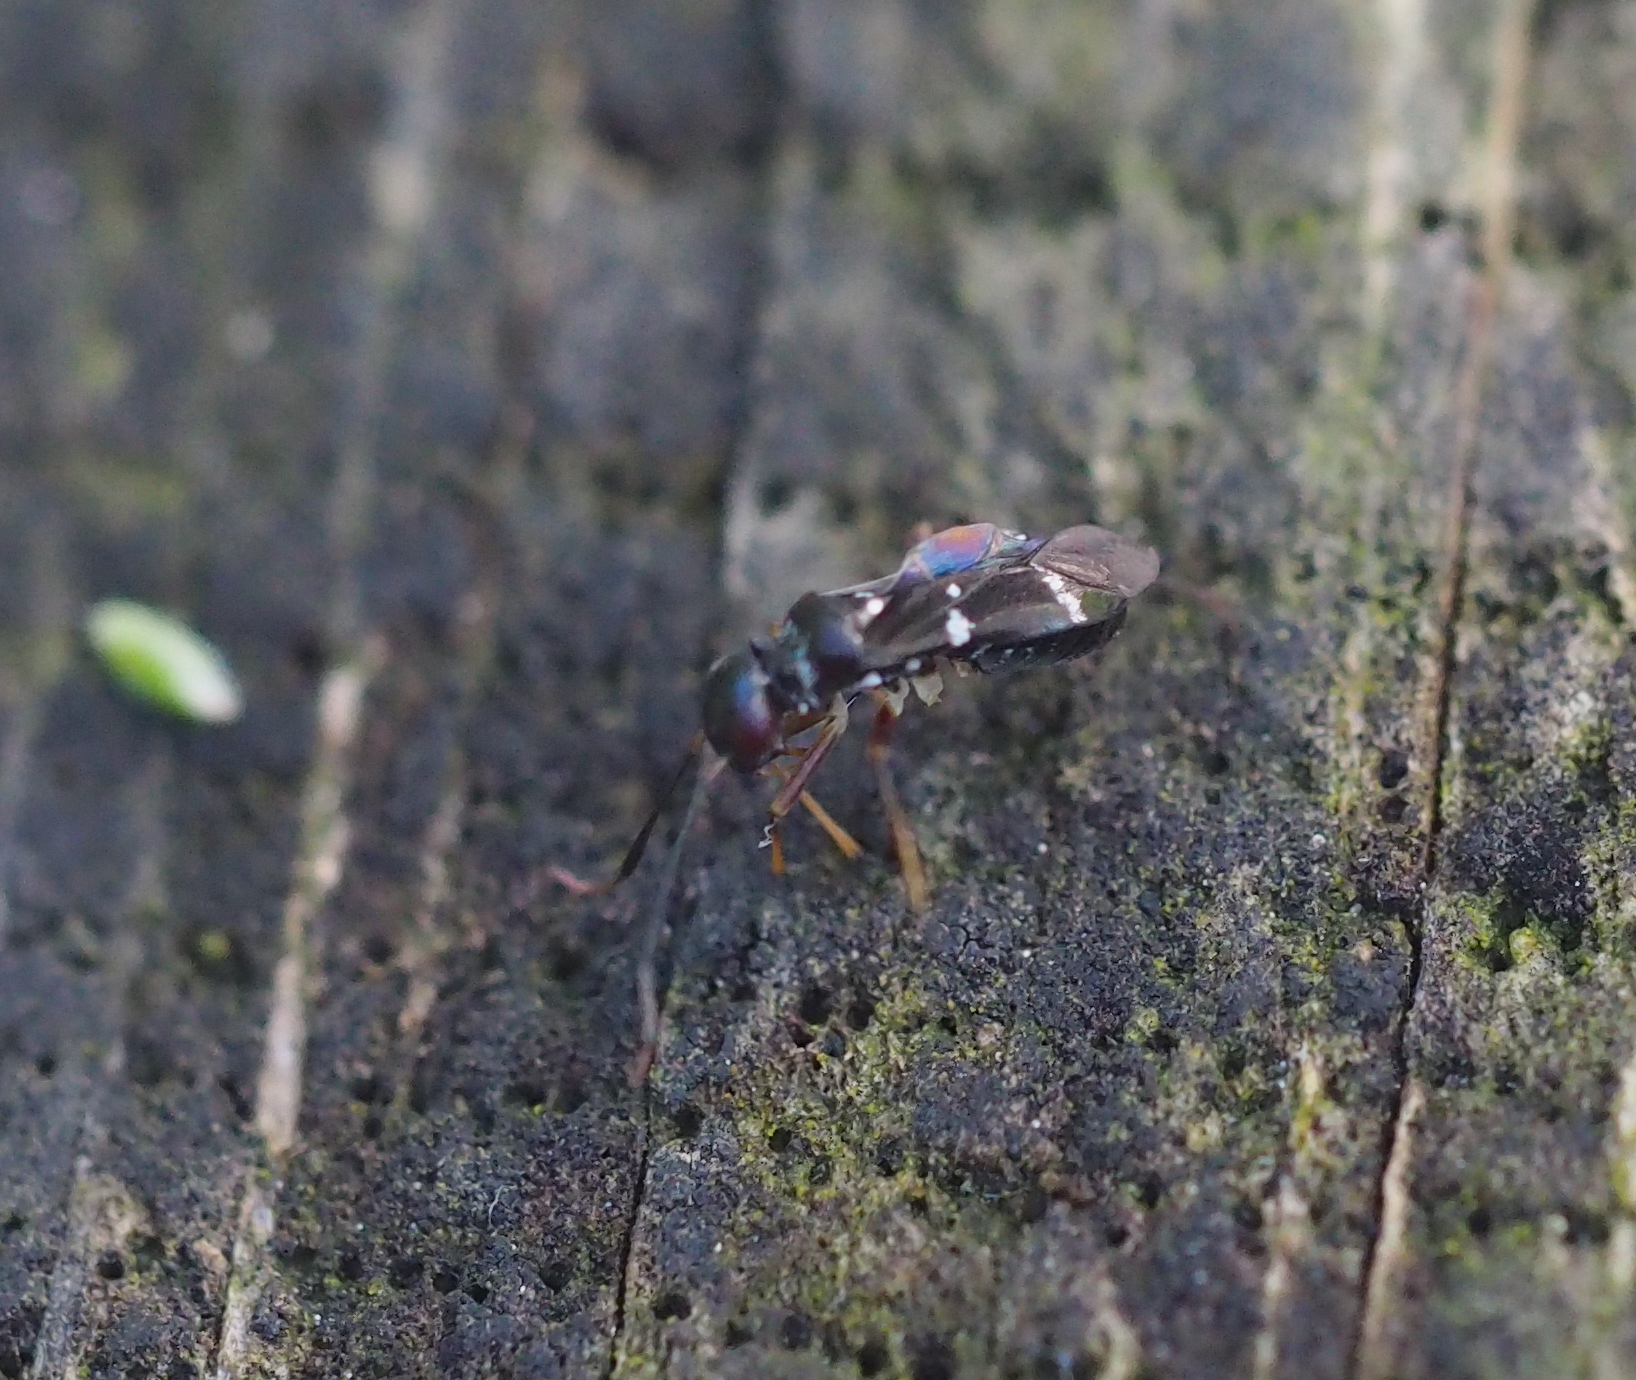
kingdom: Animalia
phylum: Arthropoda
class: Insecta
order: Hemiptera
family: Miridae
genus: Globiceps
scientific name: Globiceps sphaegiformis
